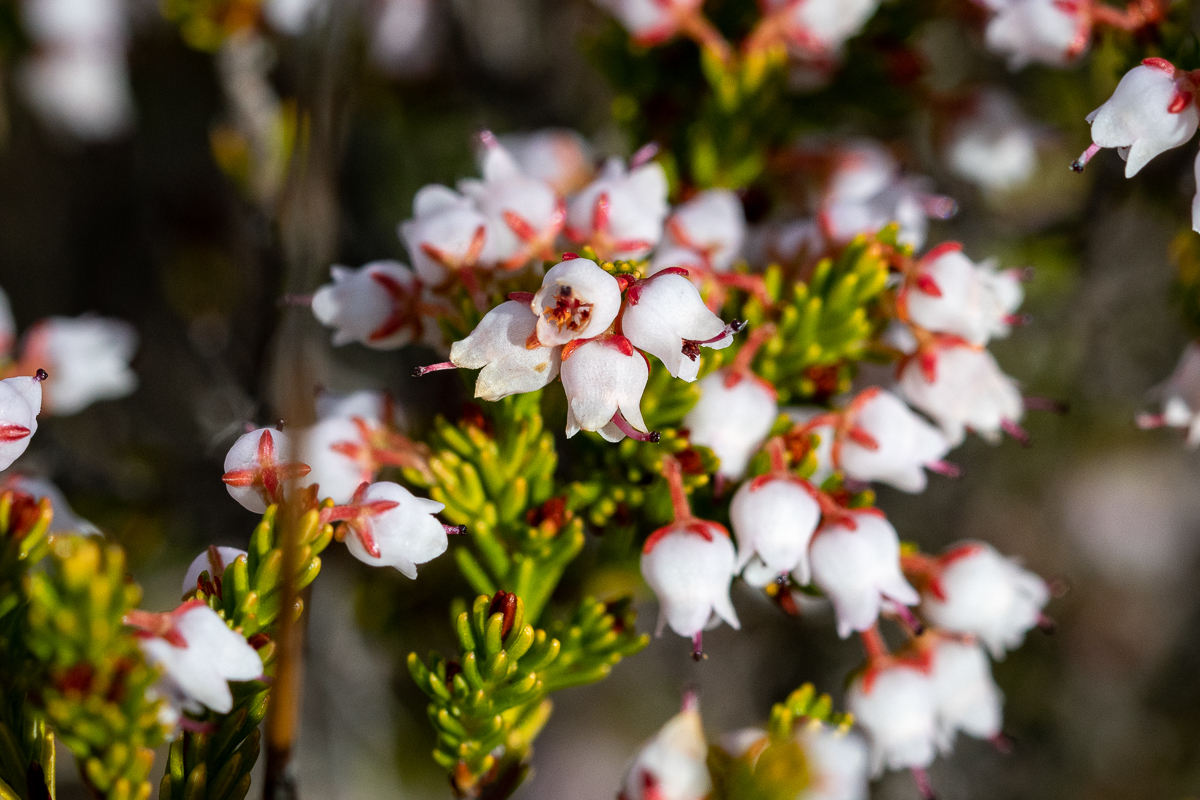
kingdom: Plantae
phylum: Tracheophyta
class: Magnoliopsida
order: Ericales
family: Ericaceae
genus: Erica
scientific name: Erica curvirostris
